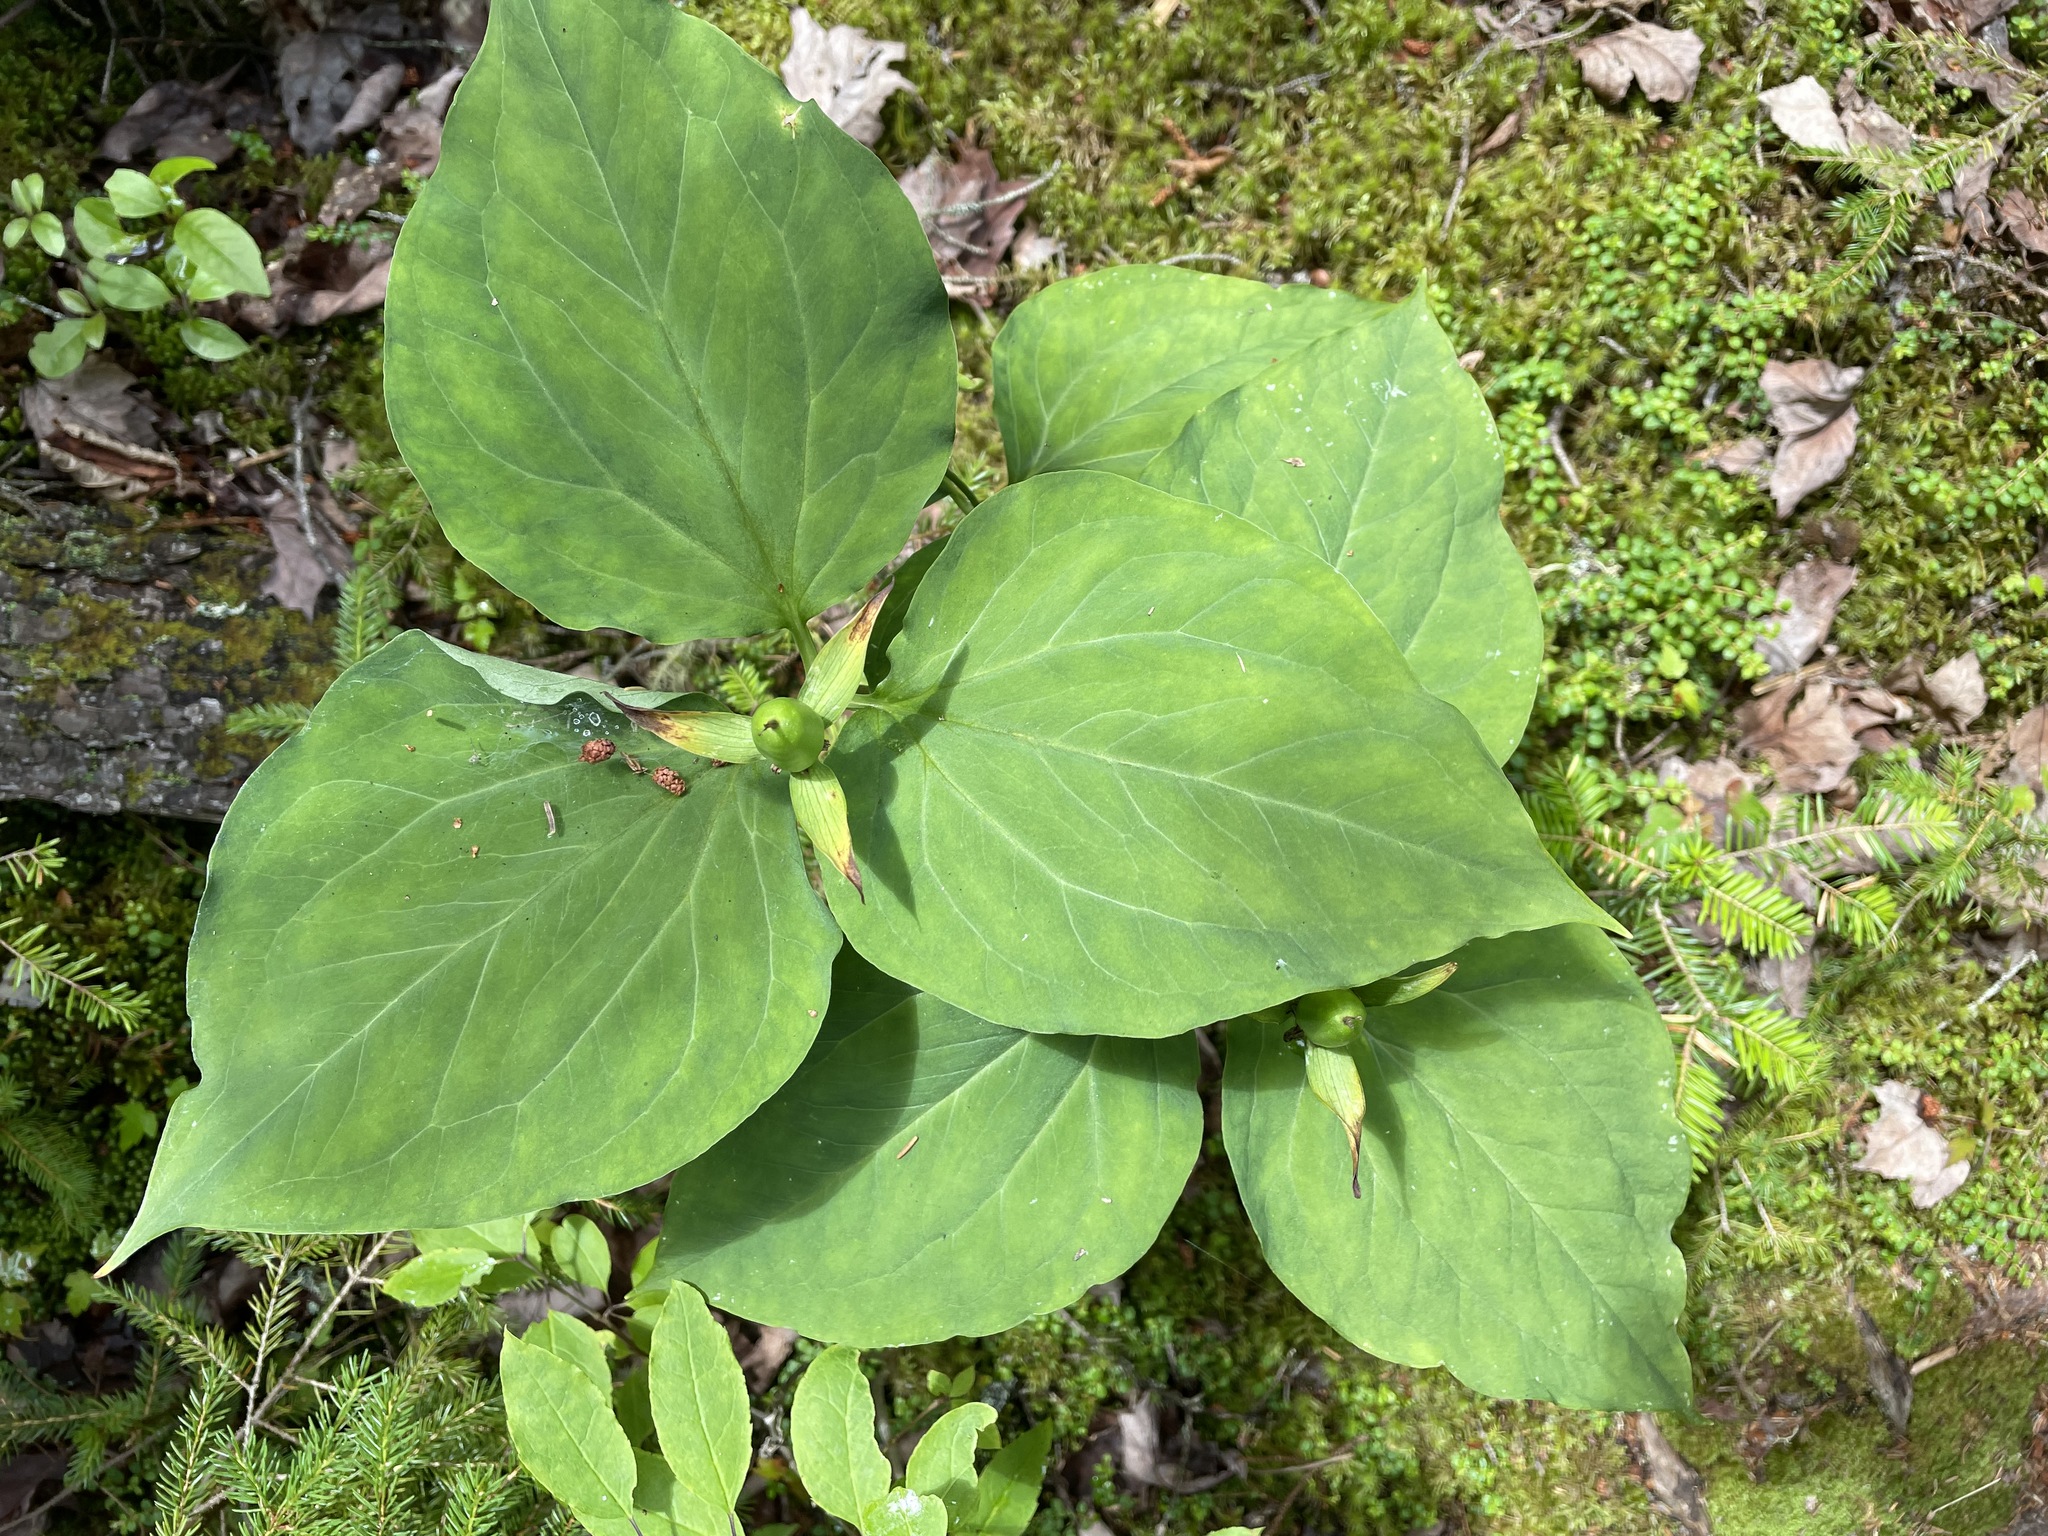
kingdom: Plantae
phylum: Tracheophyta
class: Liliopsida
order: Liliales
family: Melanthiaceae
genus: Trillium
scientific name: Trillium undulatum
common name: Paint trillium
